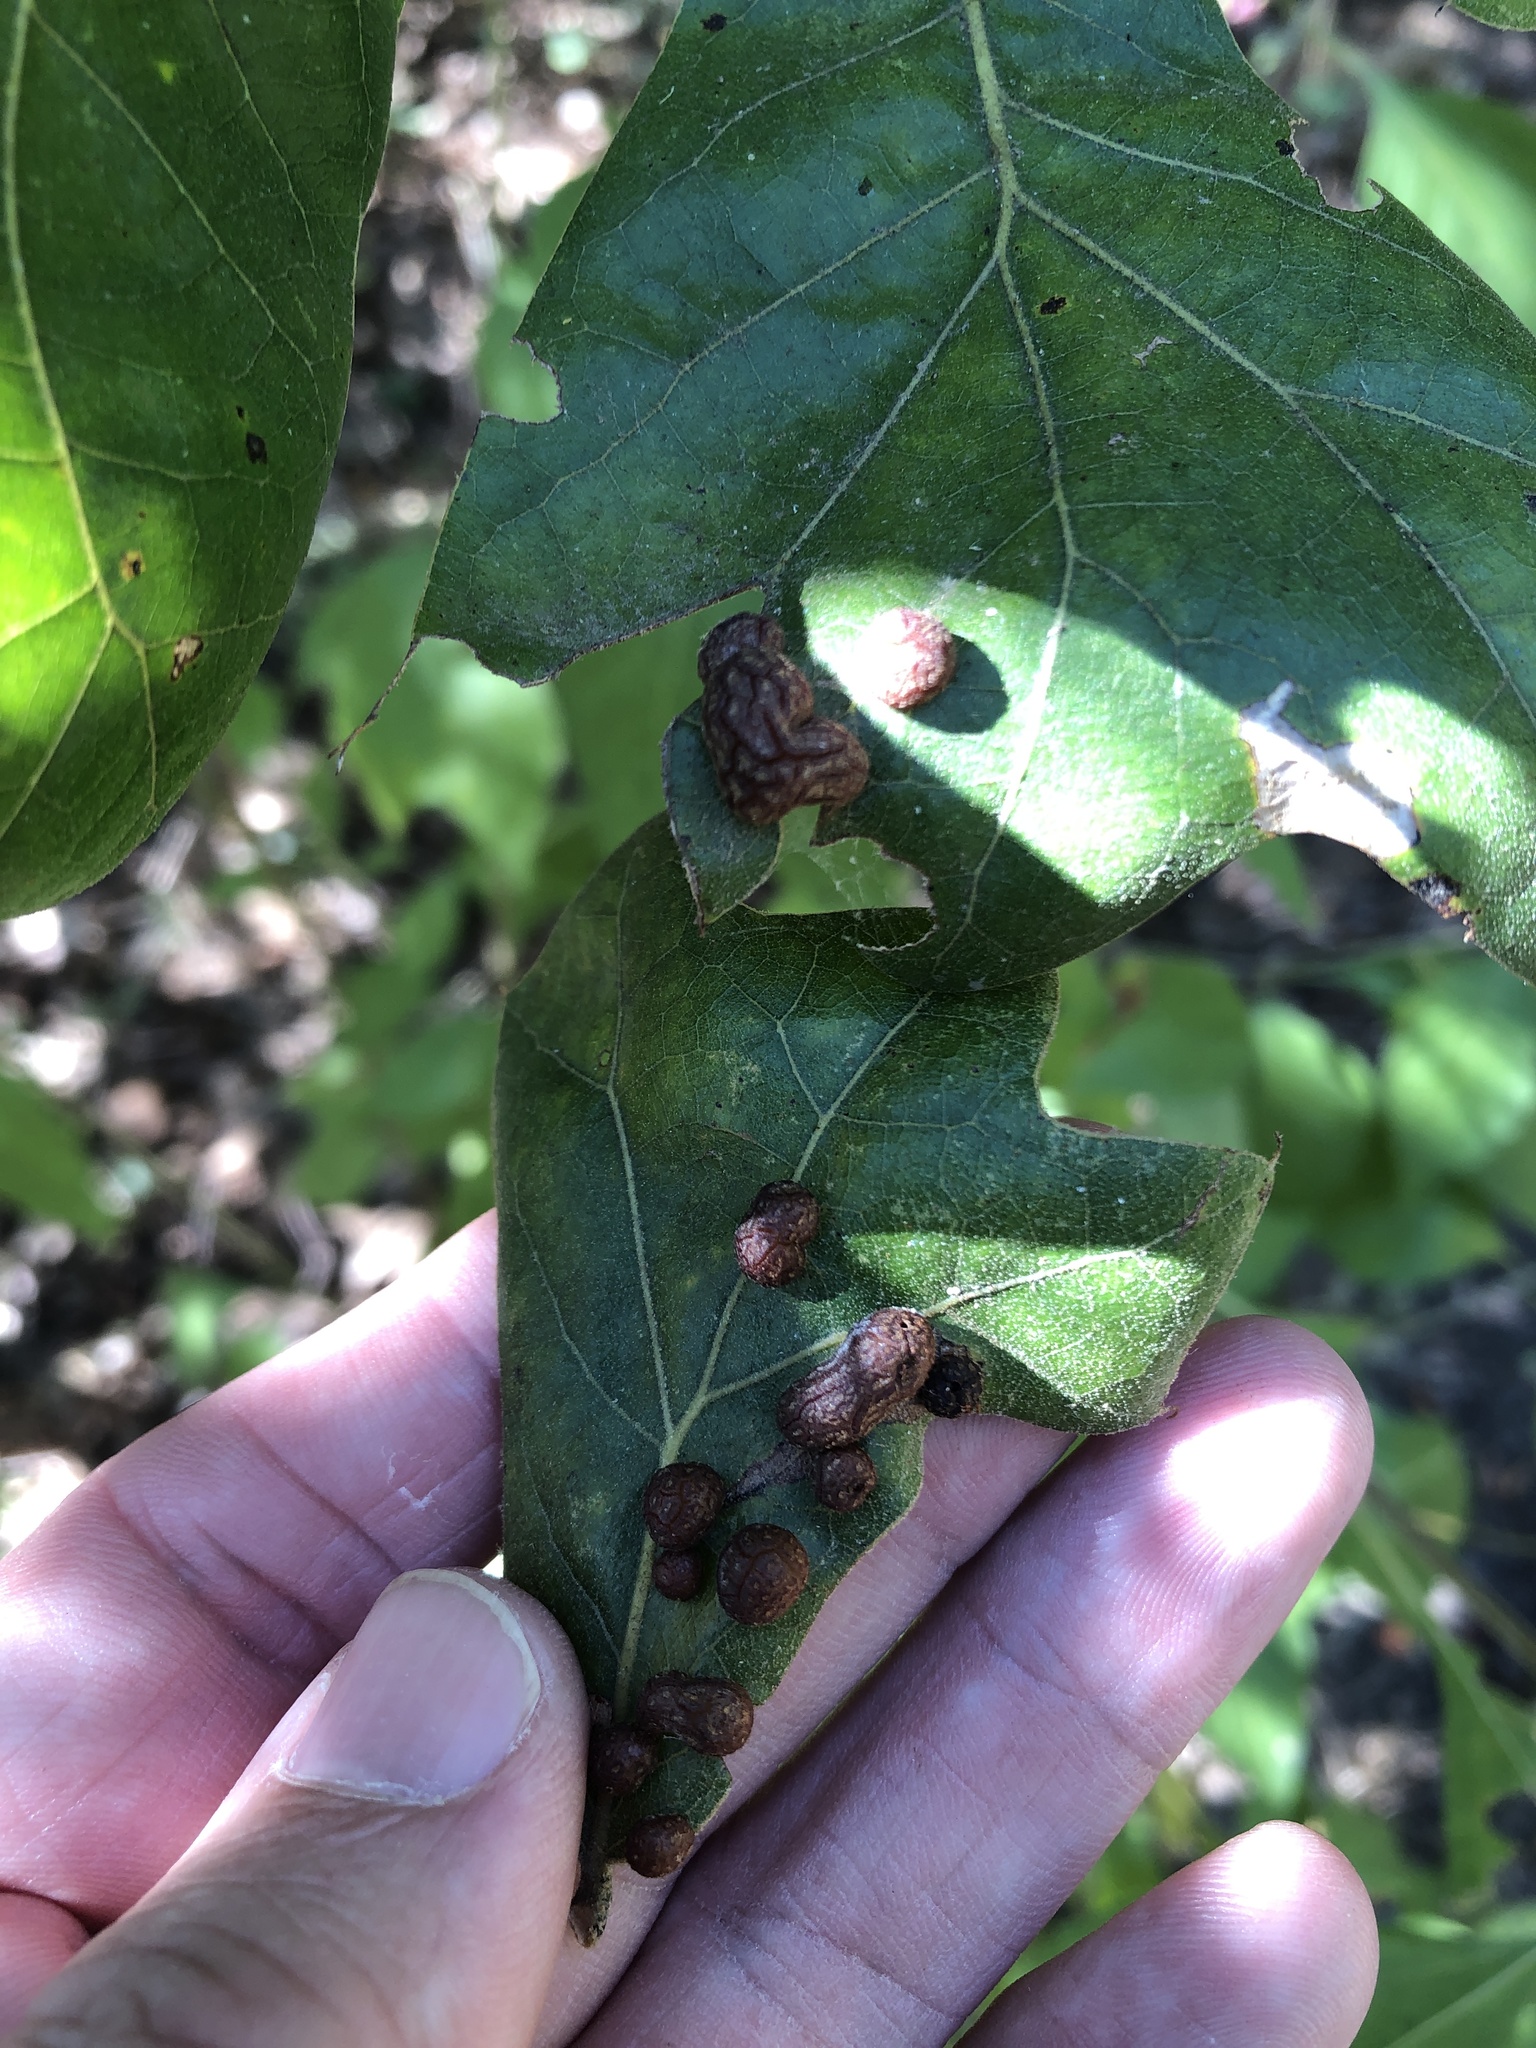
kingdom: Animalia
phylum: Arthropoda
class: Insecta
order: Diptera
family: Cecidomyiidae
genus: Polystepha
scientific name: Polystepha pilulae
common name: Oak leaf gall midge
